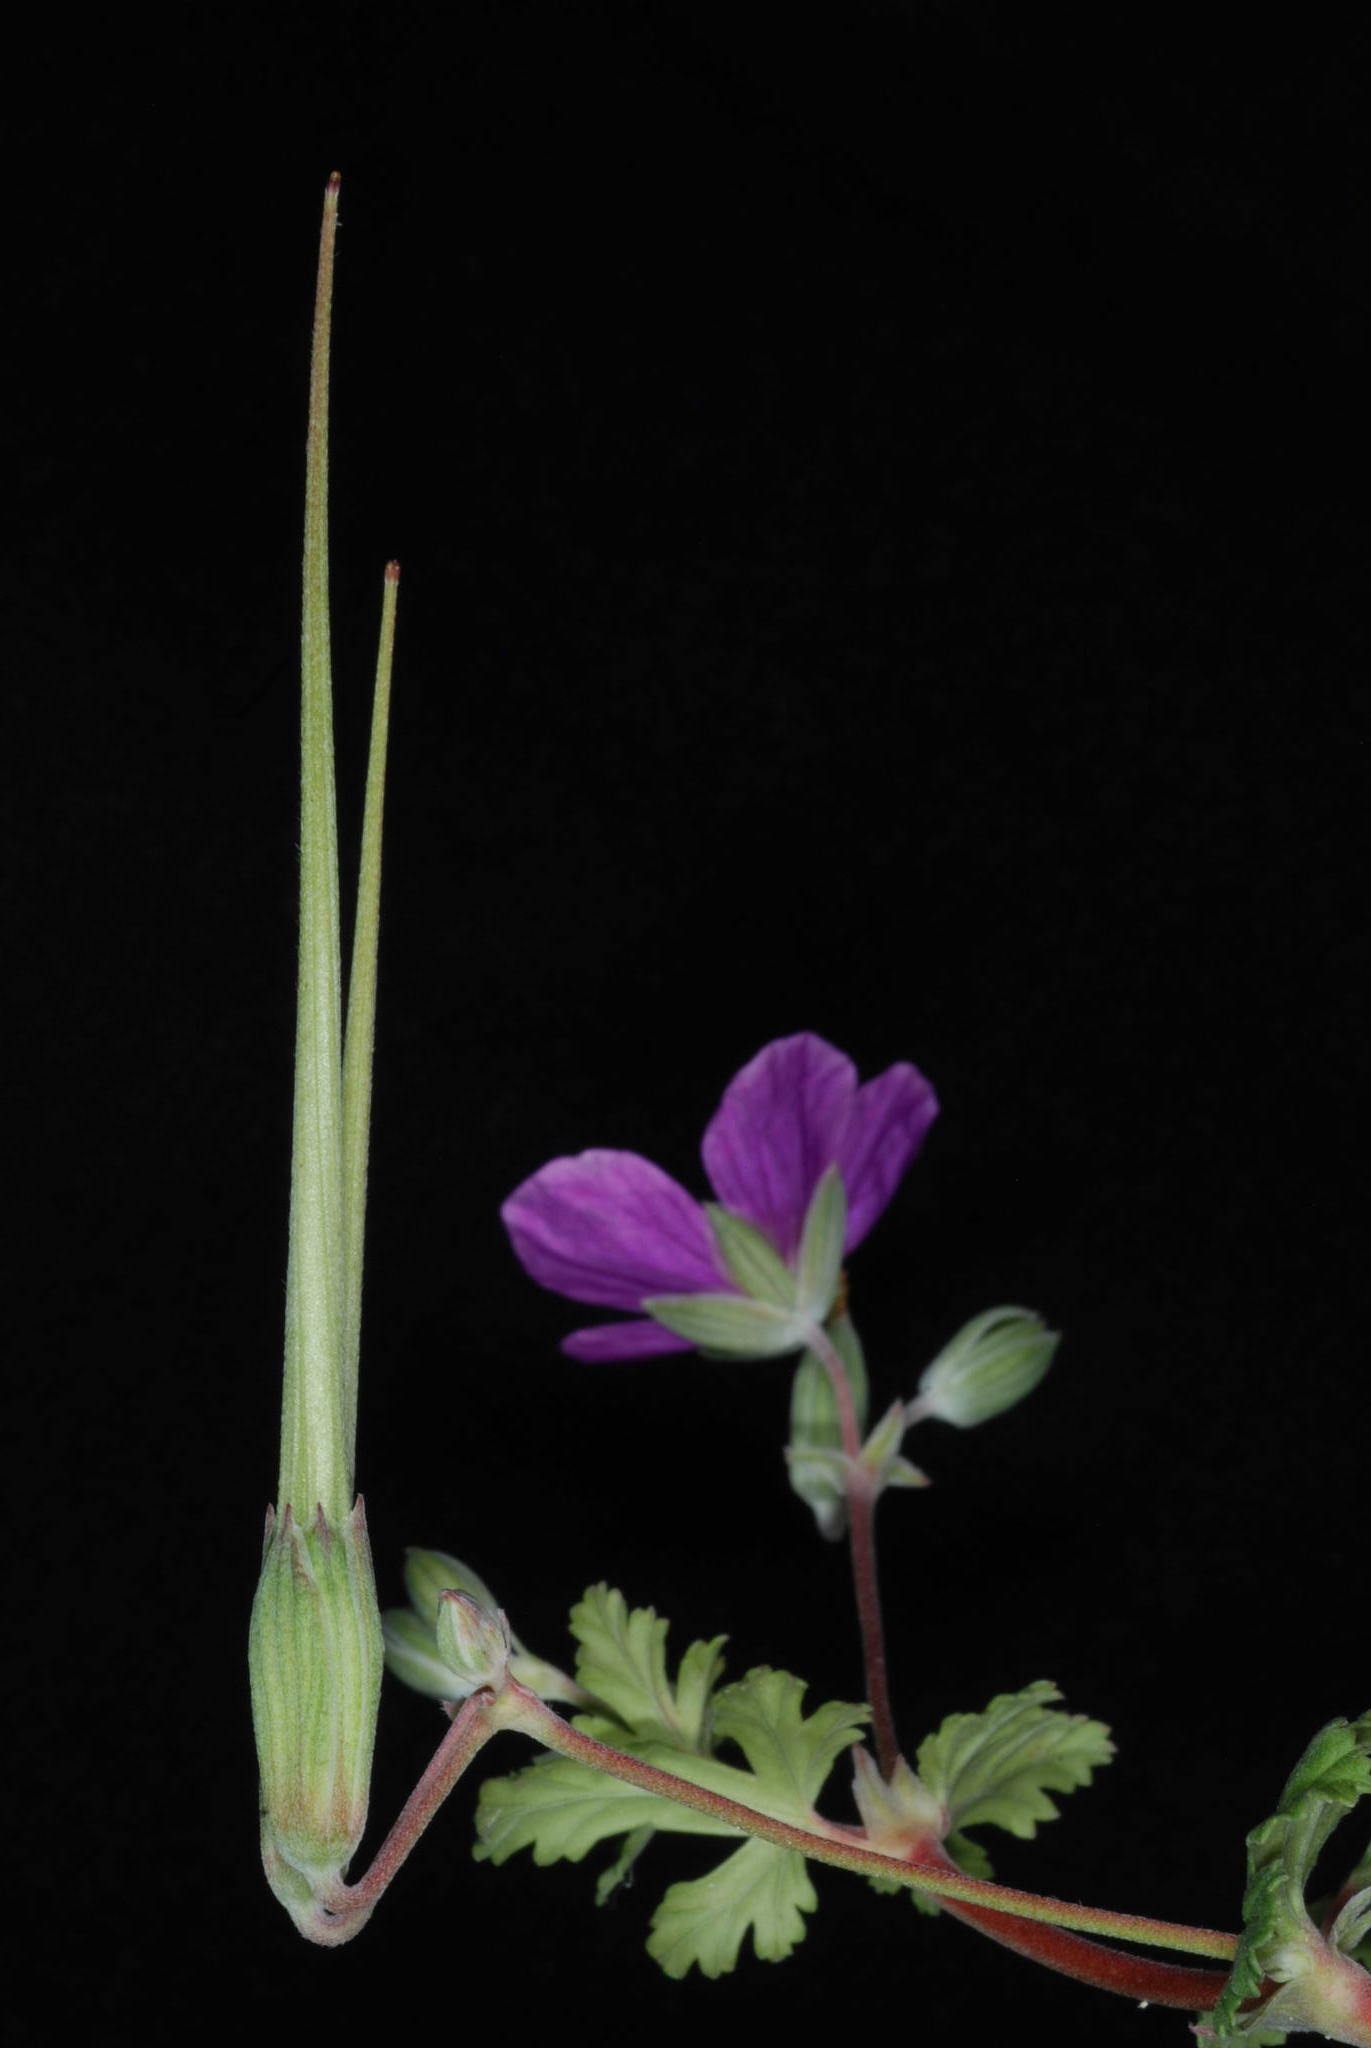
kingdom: Plantae
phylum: Tracheophyta
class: Magnoliopsida
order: Geraniales
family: Geraniaceae
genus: Erodium
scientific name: Erodium texanum
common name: Texas stork's-bill
